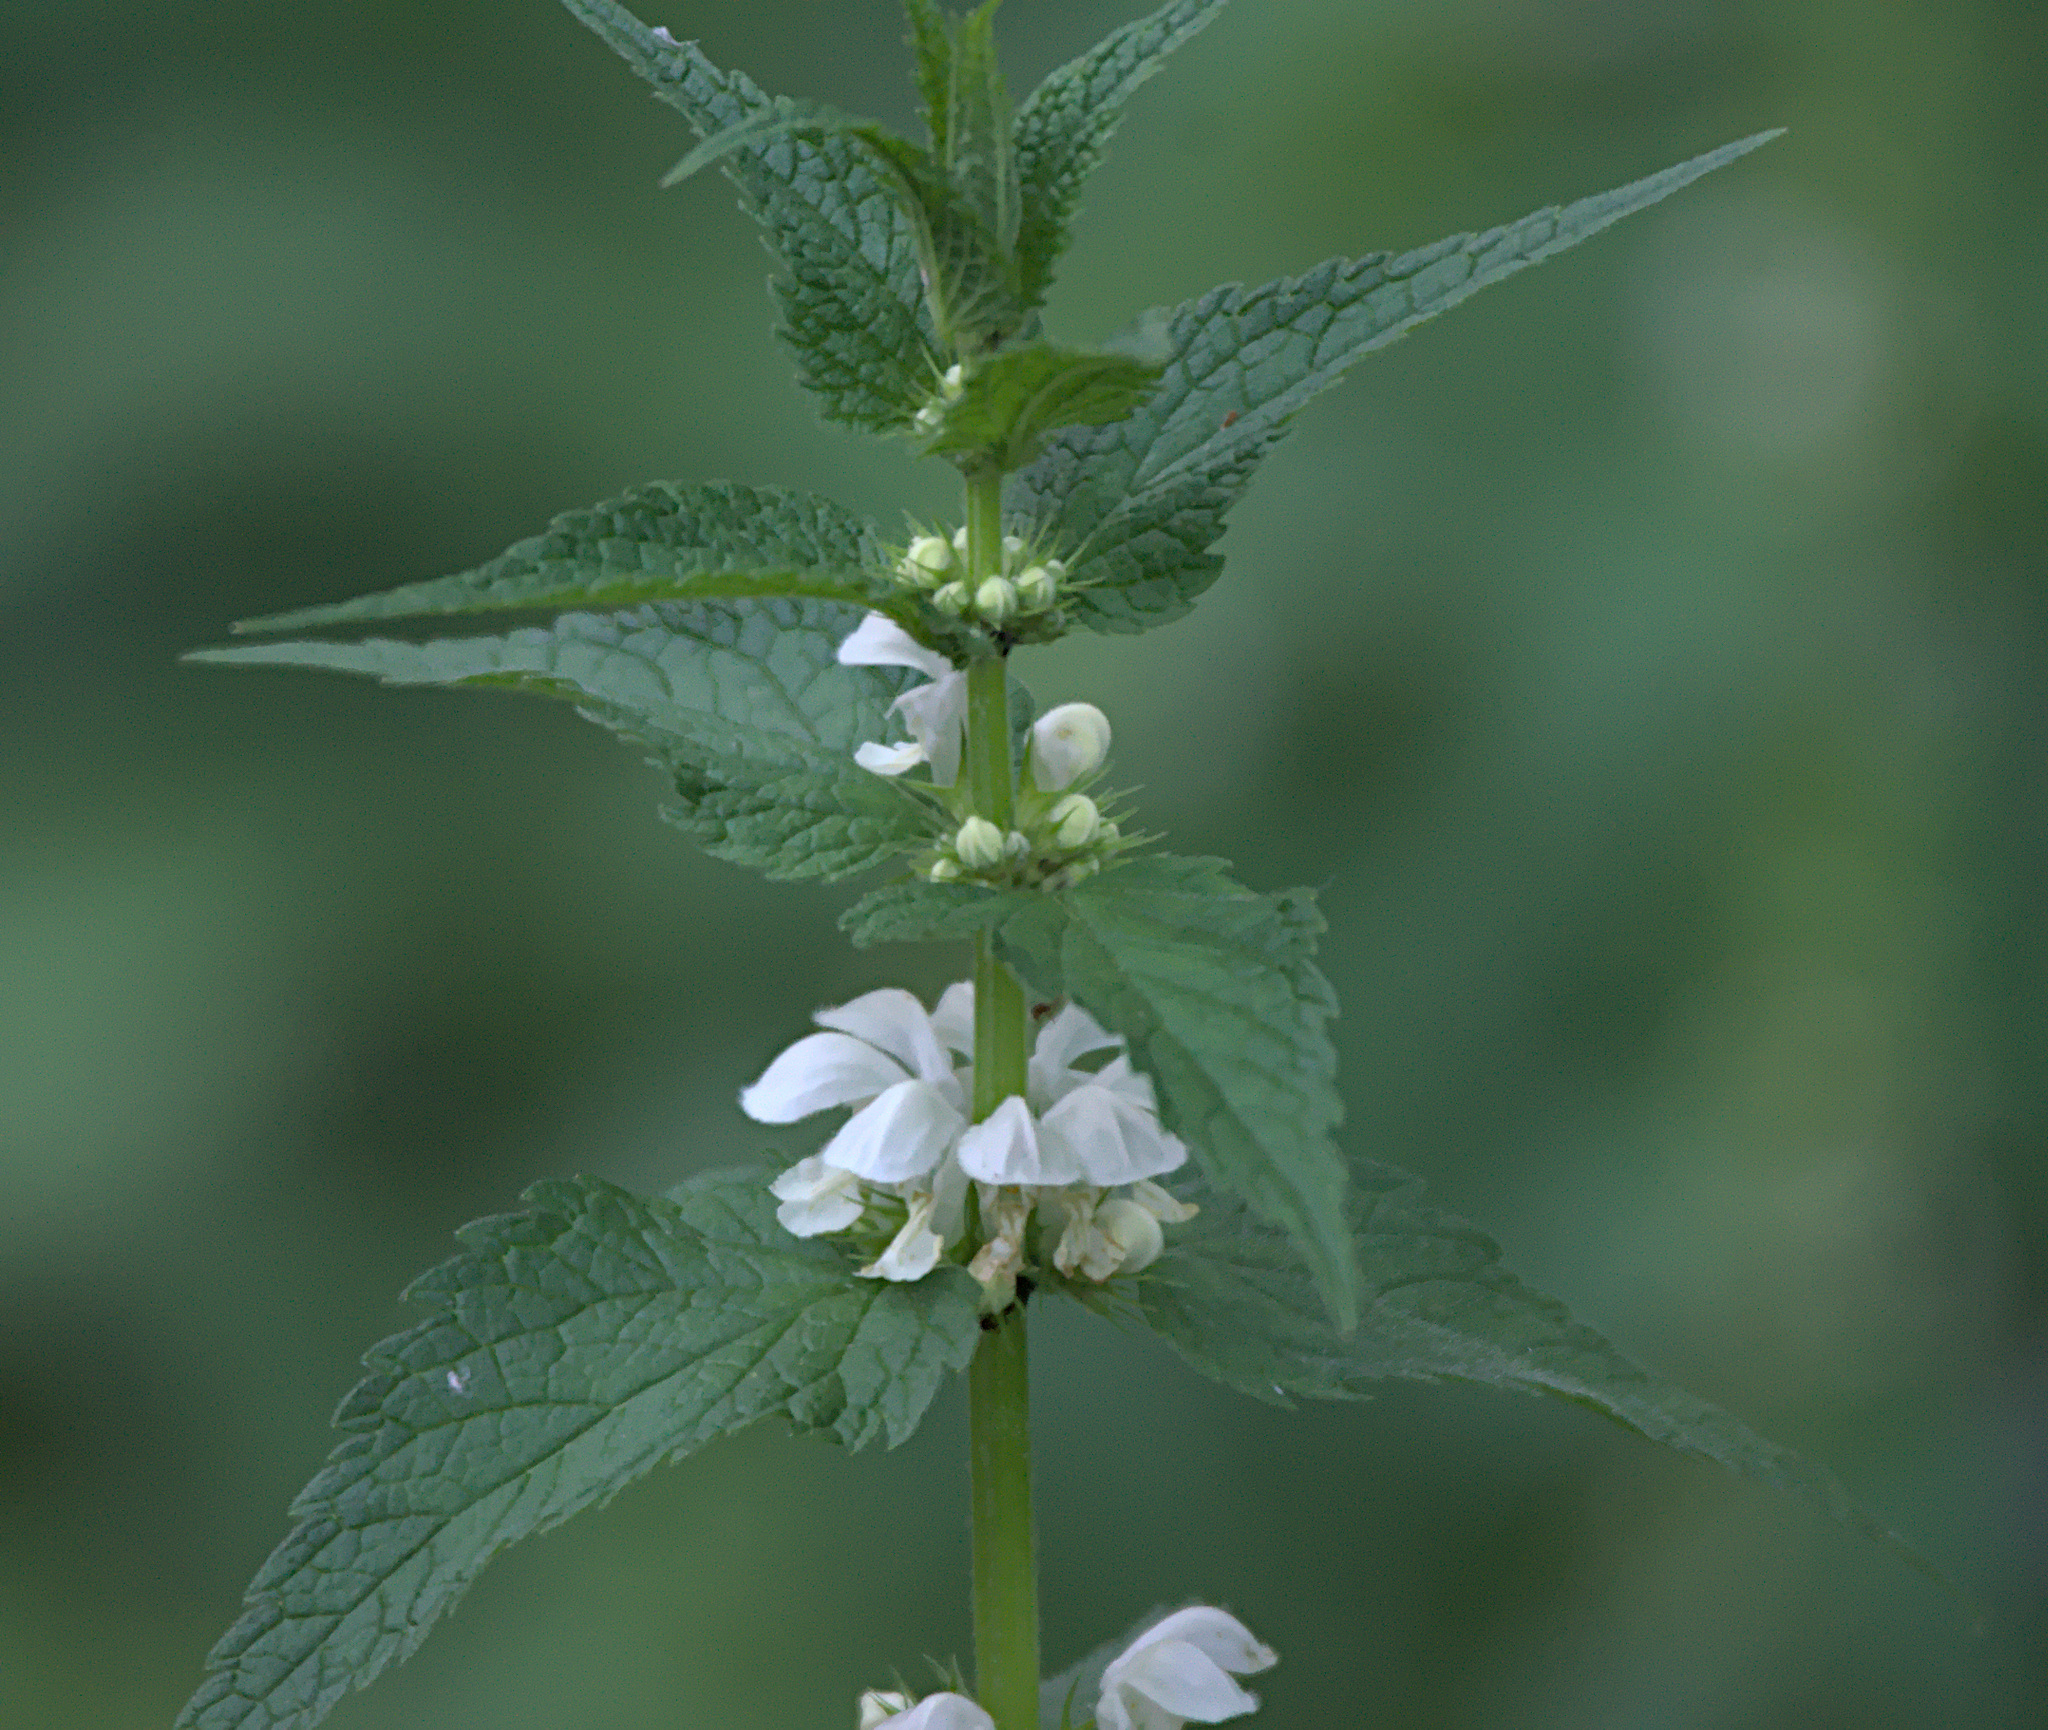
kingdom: Plantae
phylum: Tracheophyta
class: Magnoliopsida
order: Lamiales
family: Lamiaceae
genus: Lamium
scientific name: Lamium album
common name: White dead-nettle
